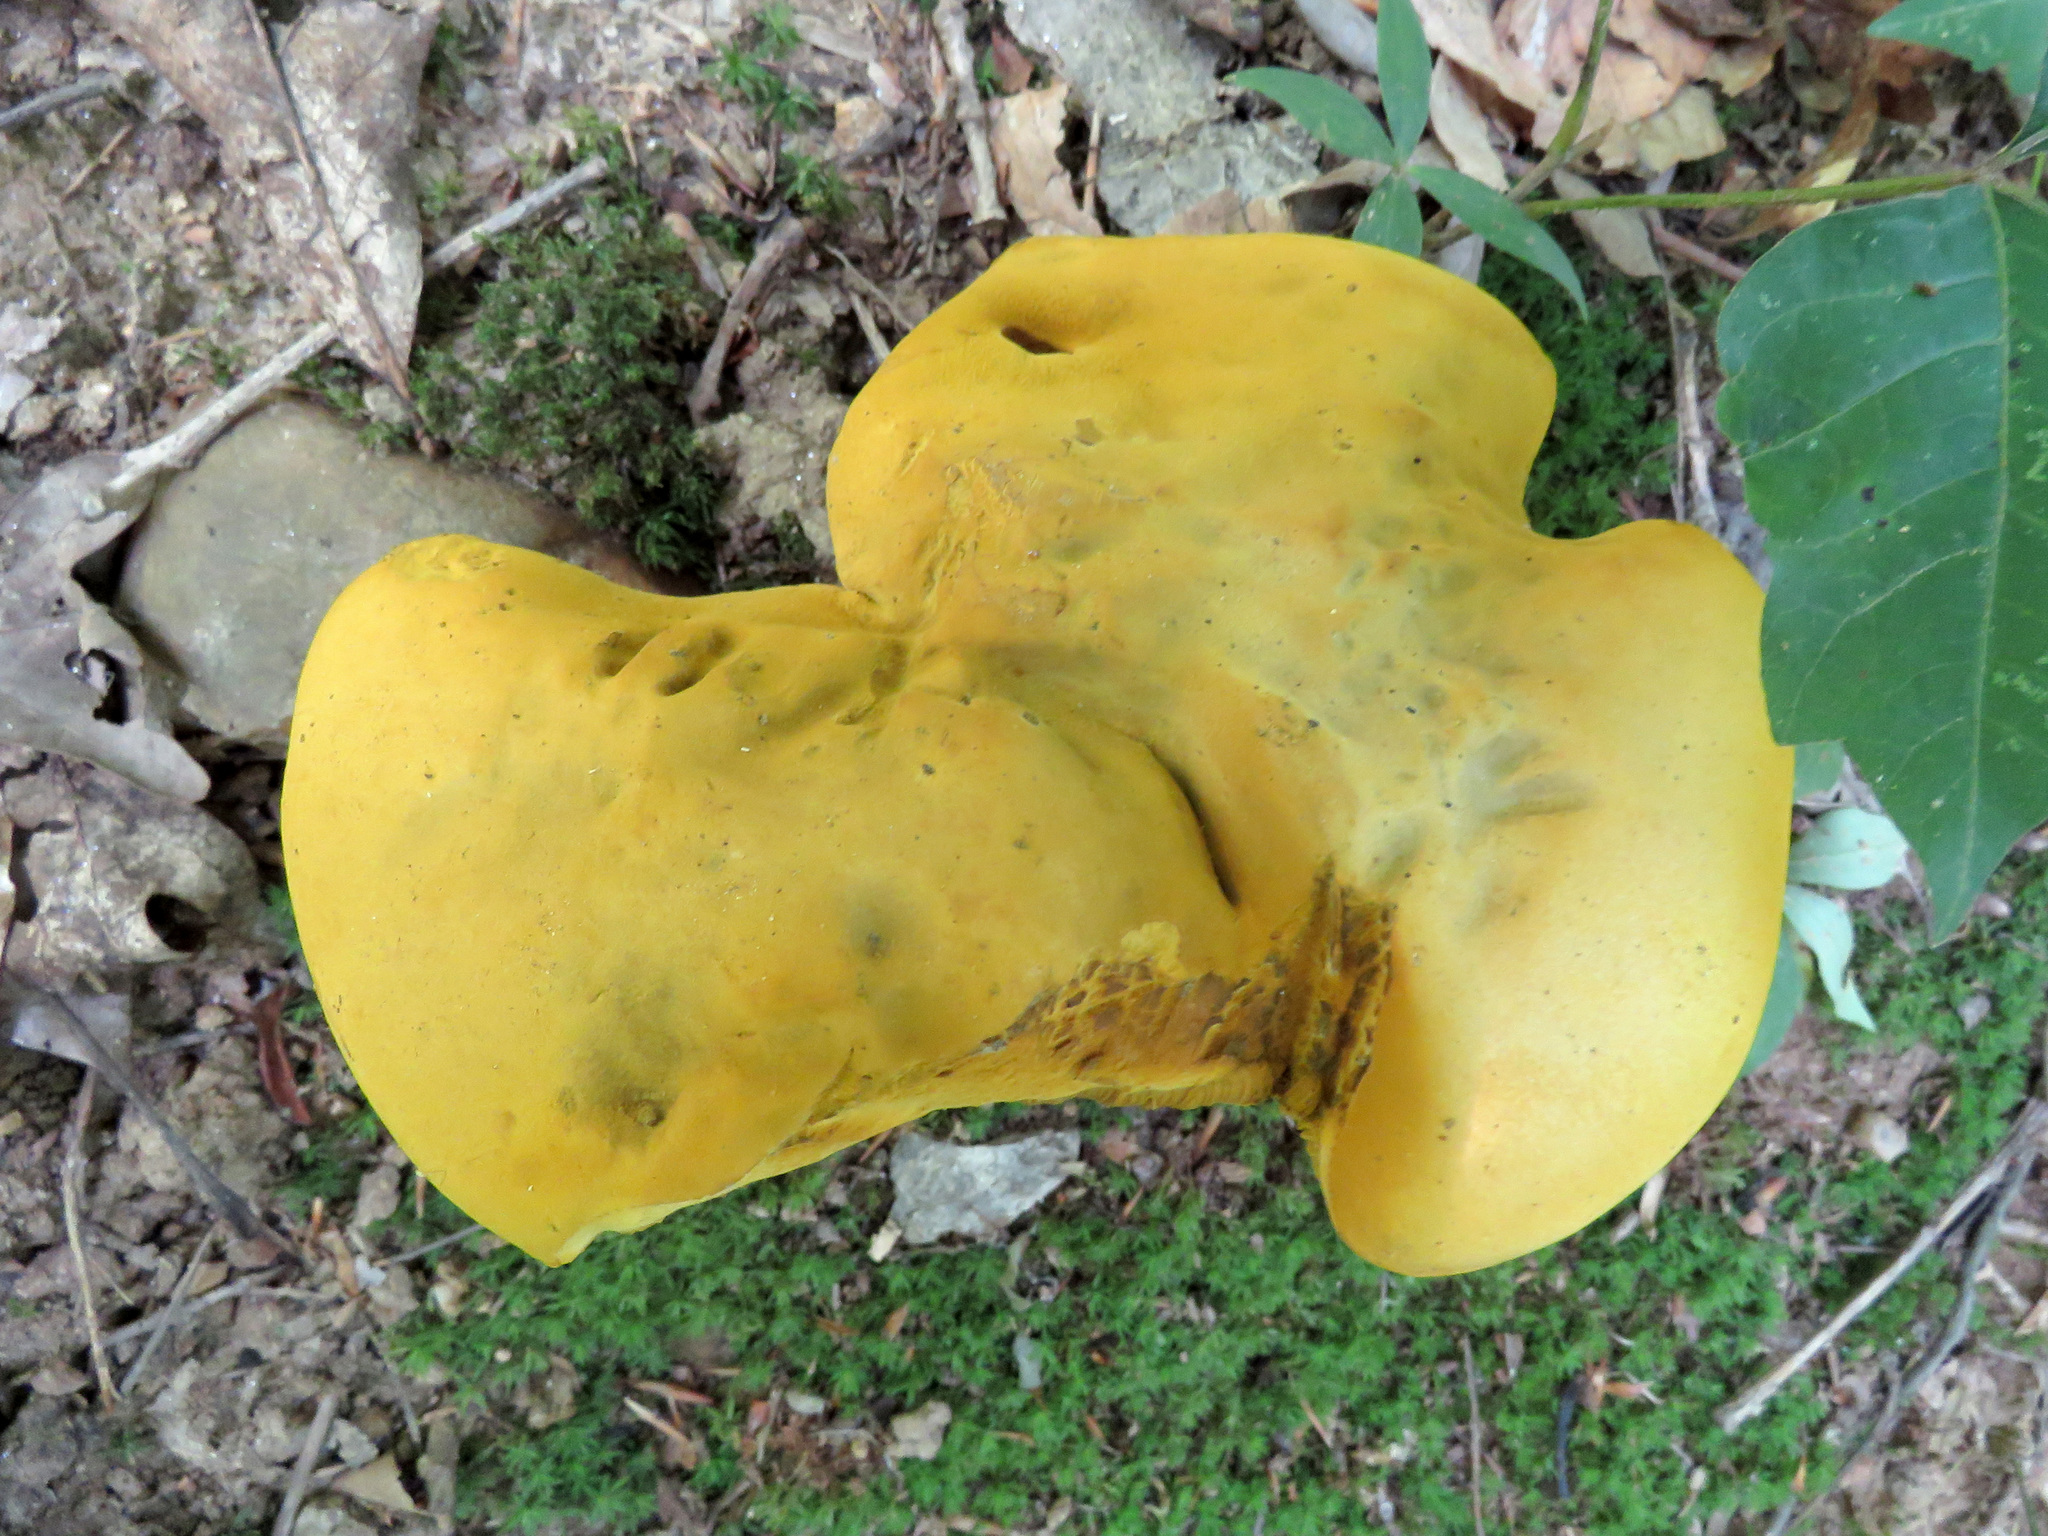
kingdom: Fungi
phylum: Basidiomycota
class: Agaricomycetes
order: Boletales
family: Boletaceae
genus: Retiboletus
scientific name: Retiboletus ornatipes
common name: Ornate-stalked bolete
